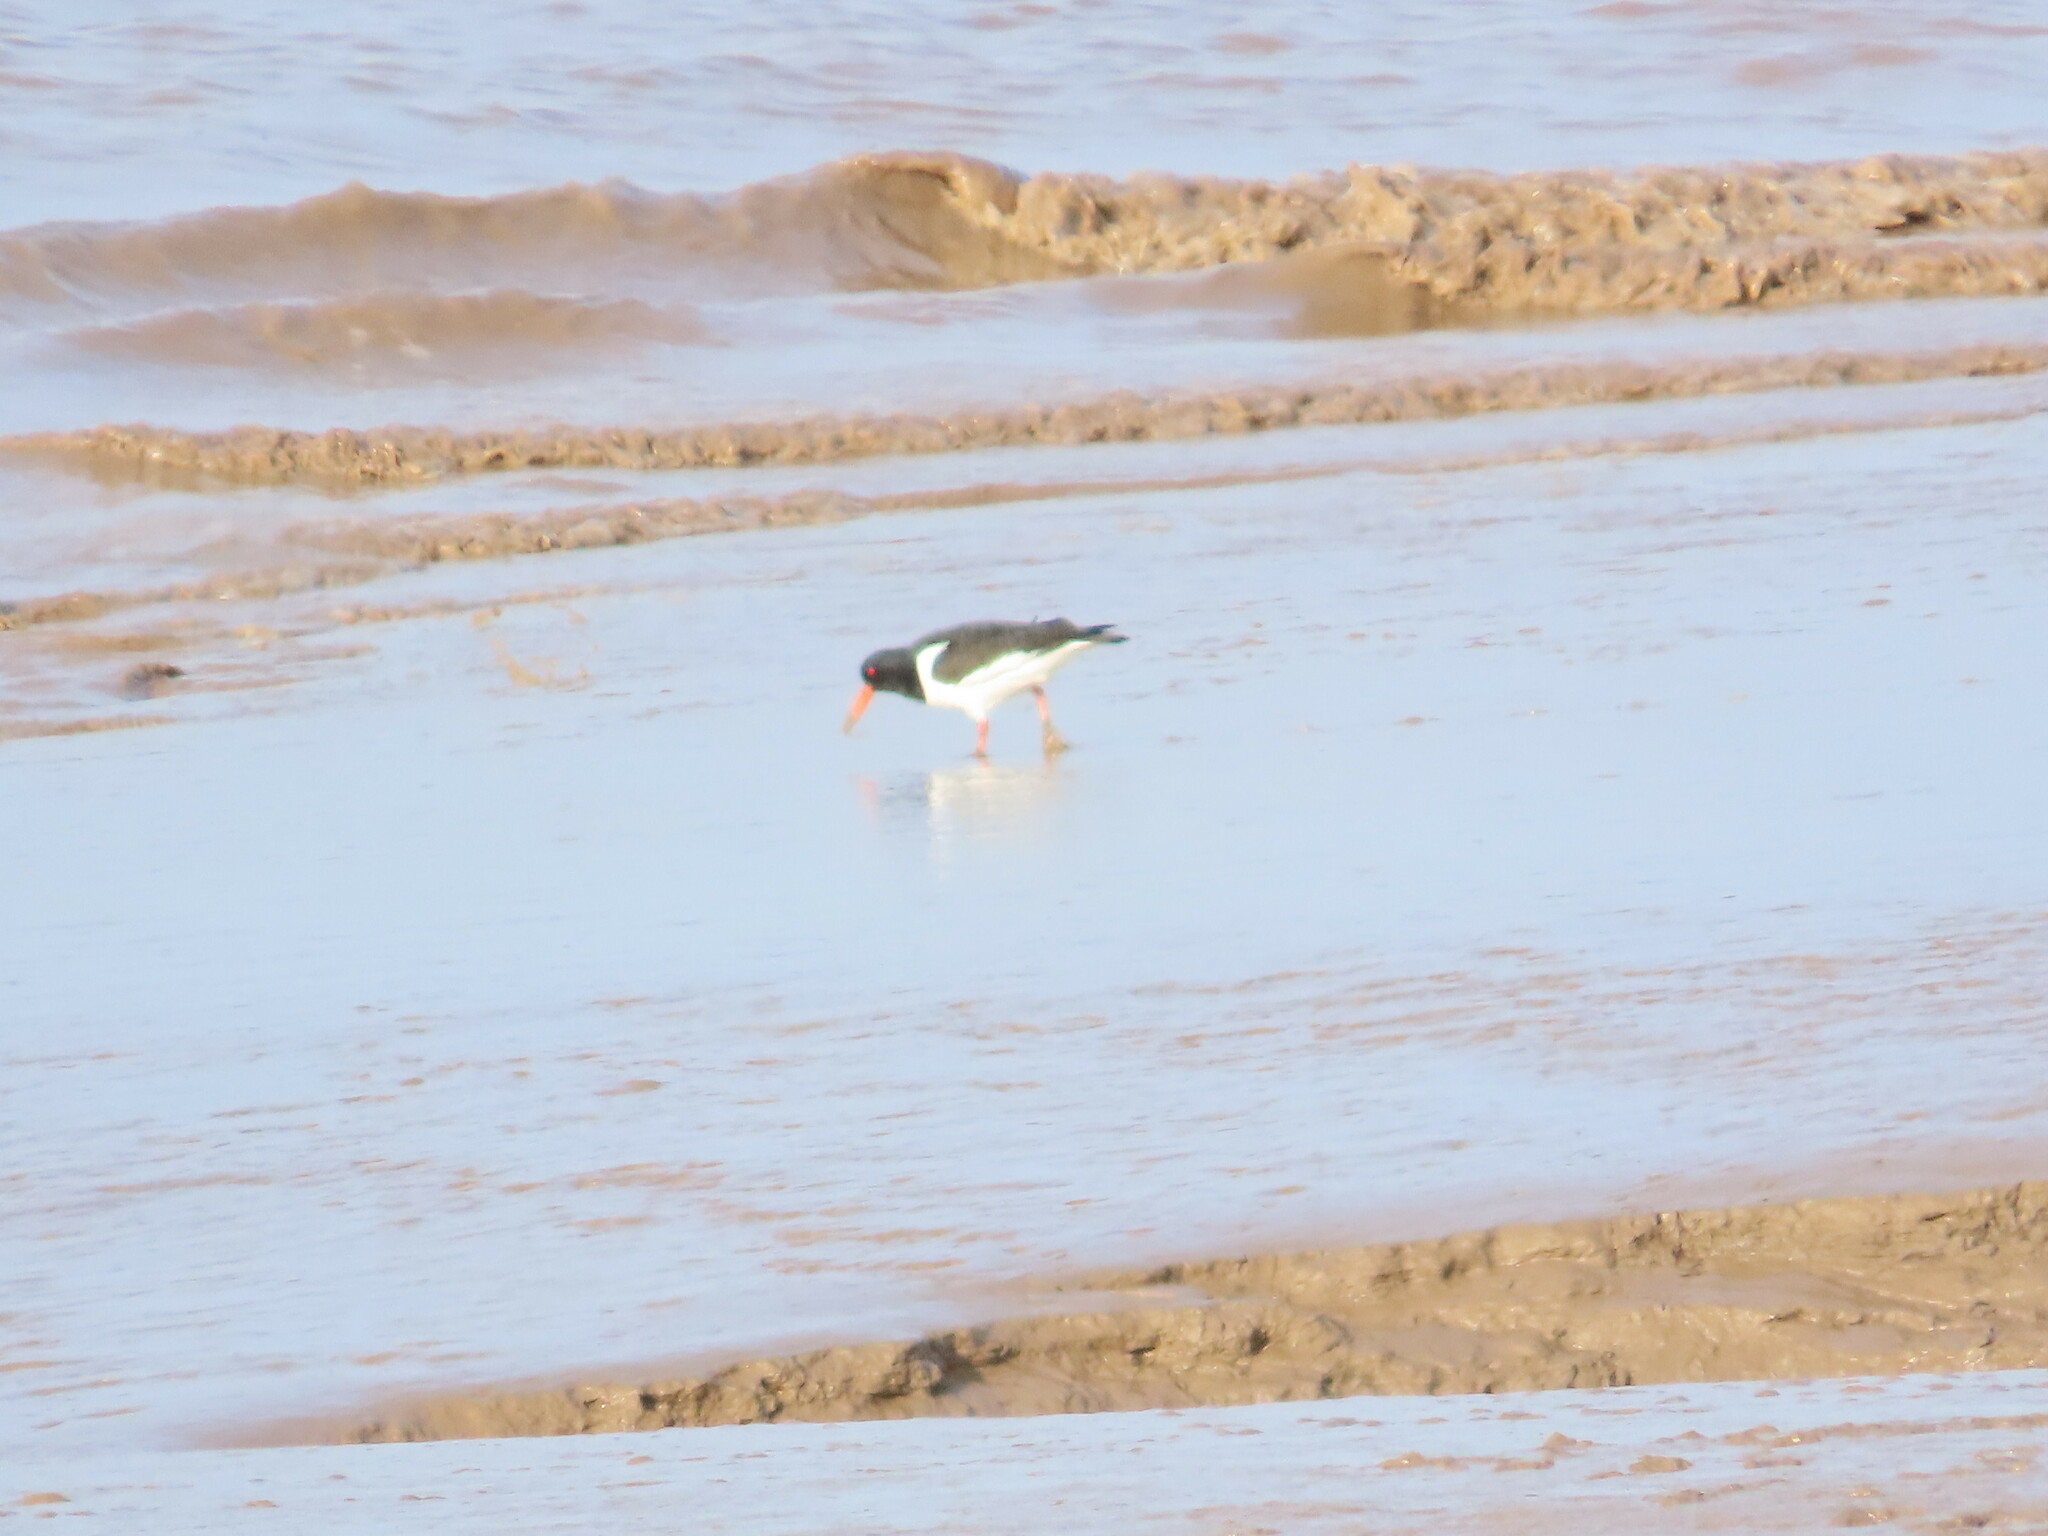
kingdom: Animalia
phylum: Chordata
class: Aves
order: Charadriiformes
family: Haematopodidae
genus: Haematopus
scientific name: Haematopus ostralegus
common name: Eurasian oystercatcher
